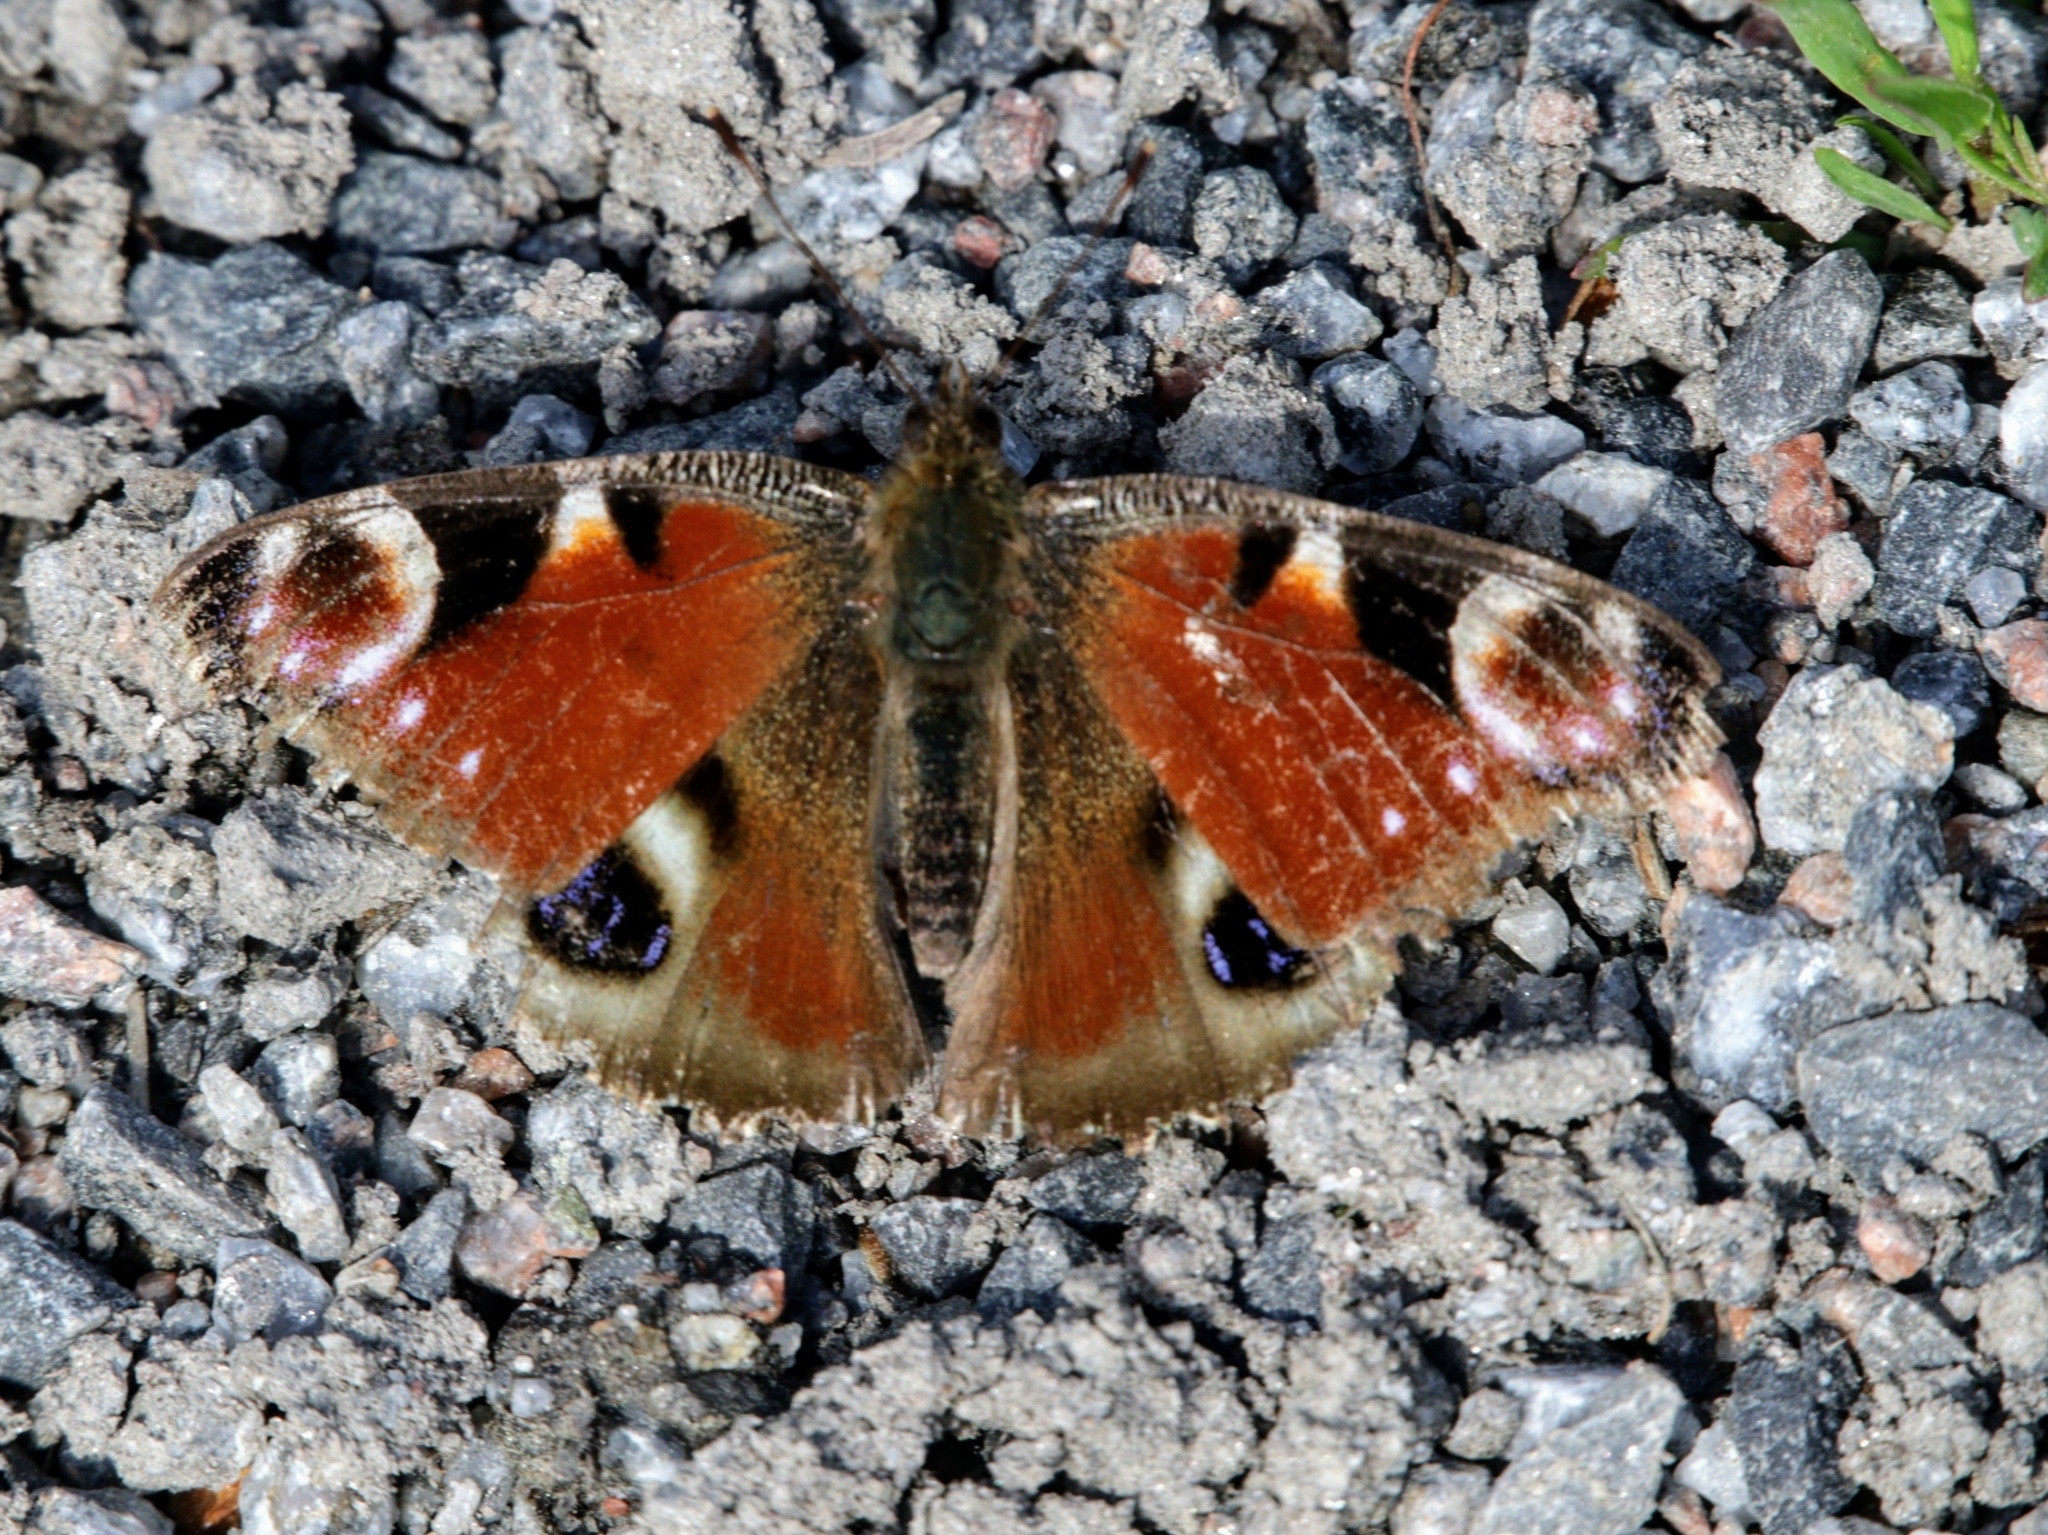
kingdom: Animalia
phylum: Arthropoda
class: Insecta
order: Lepidoptera
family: Nymphalidae
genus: Aglais
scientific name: Aglais io
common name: Peacock
